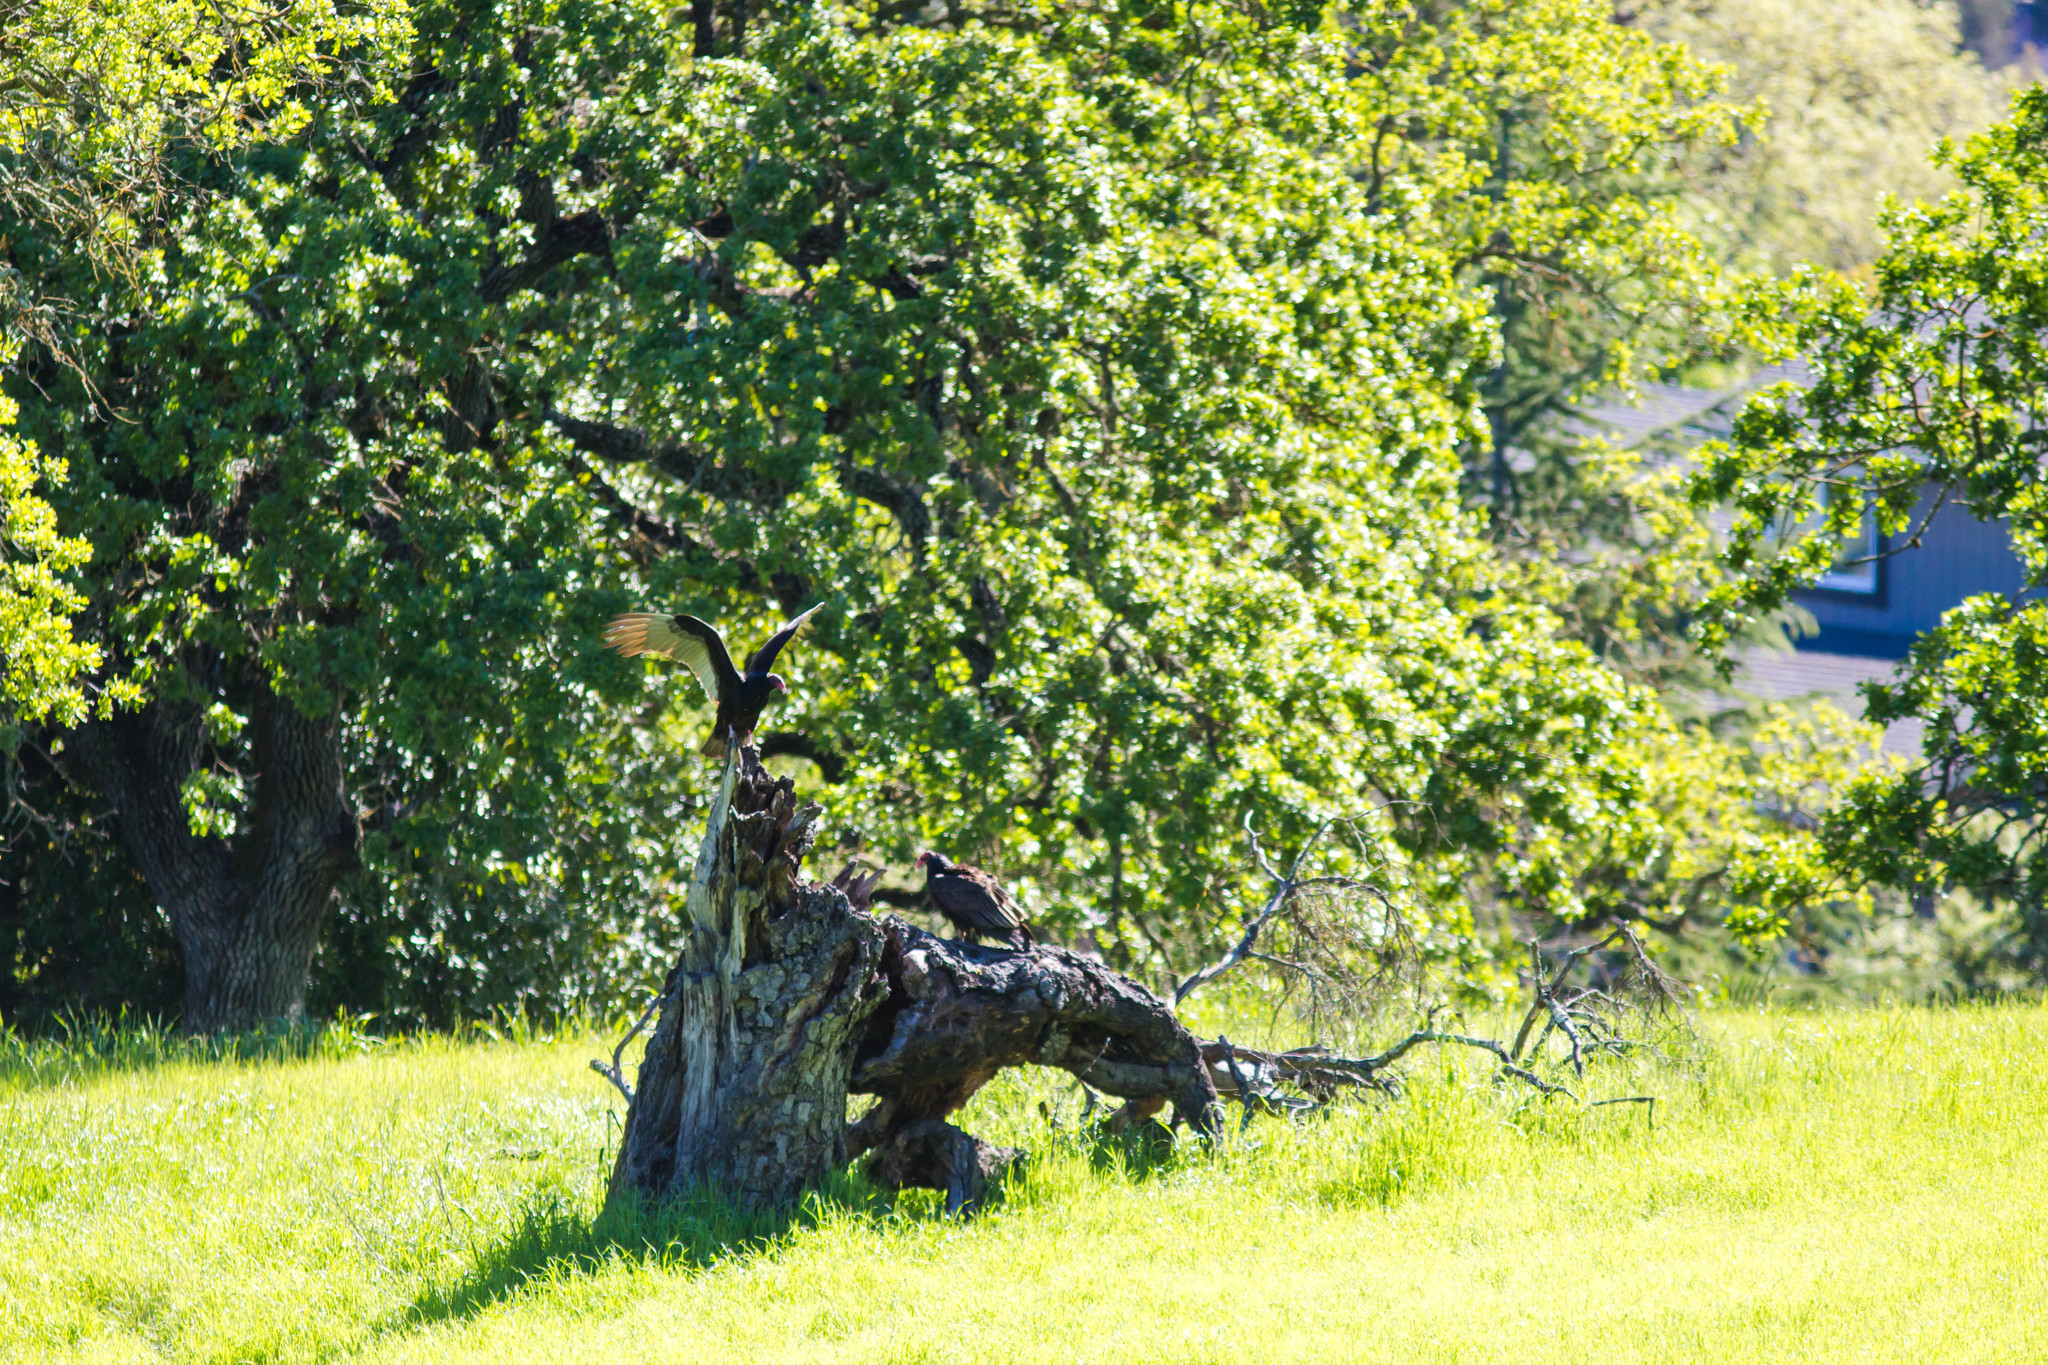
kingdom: Animalia
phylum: Chordata
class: Aves
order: Accipitriformes
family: Cathartidae
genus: Cathartes
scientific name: Cathartes aura
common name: Turkey vulture
